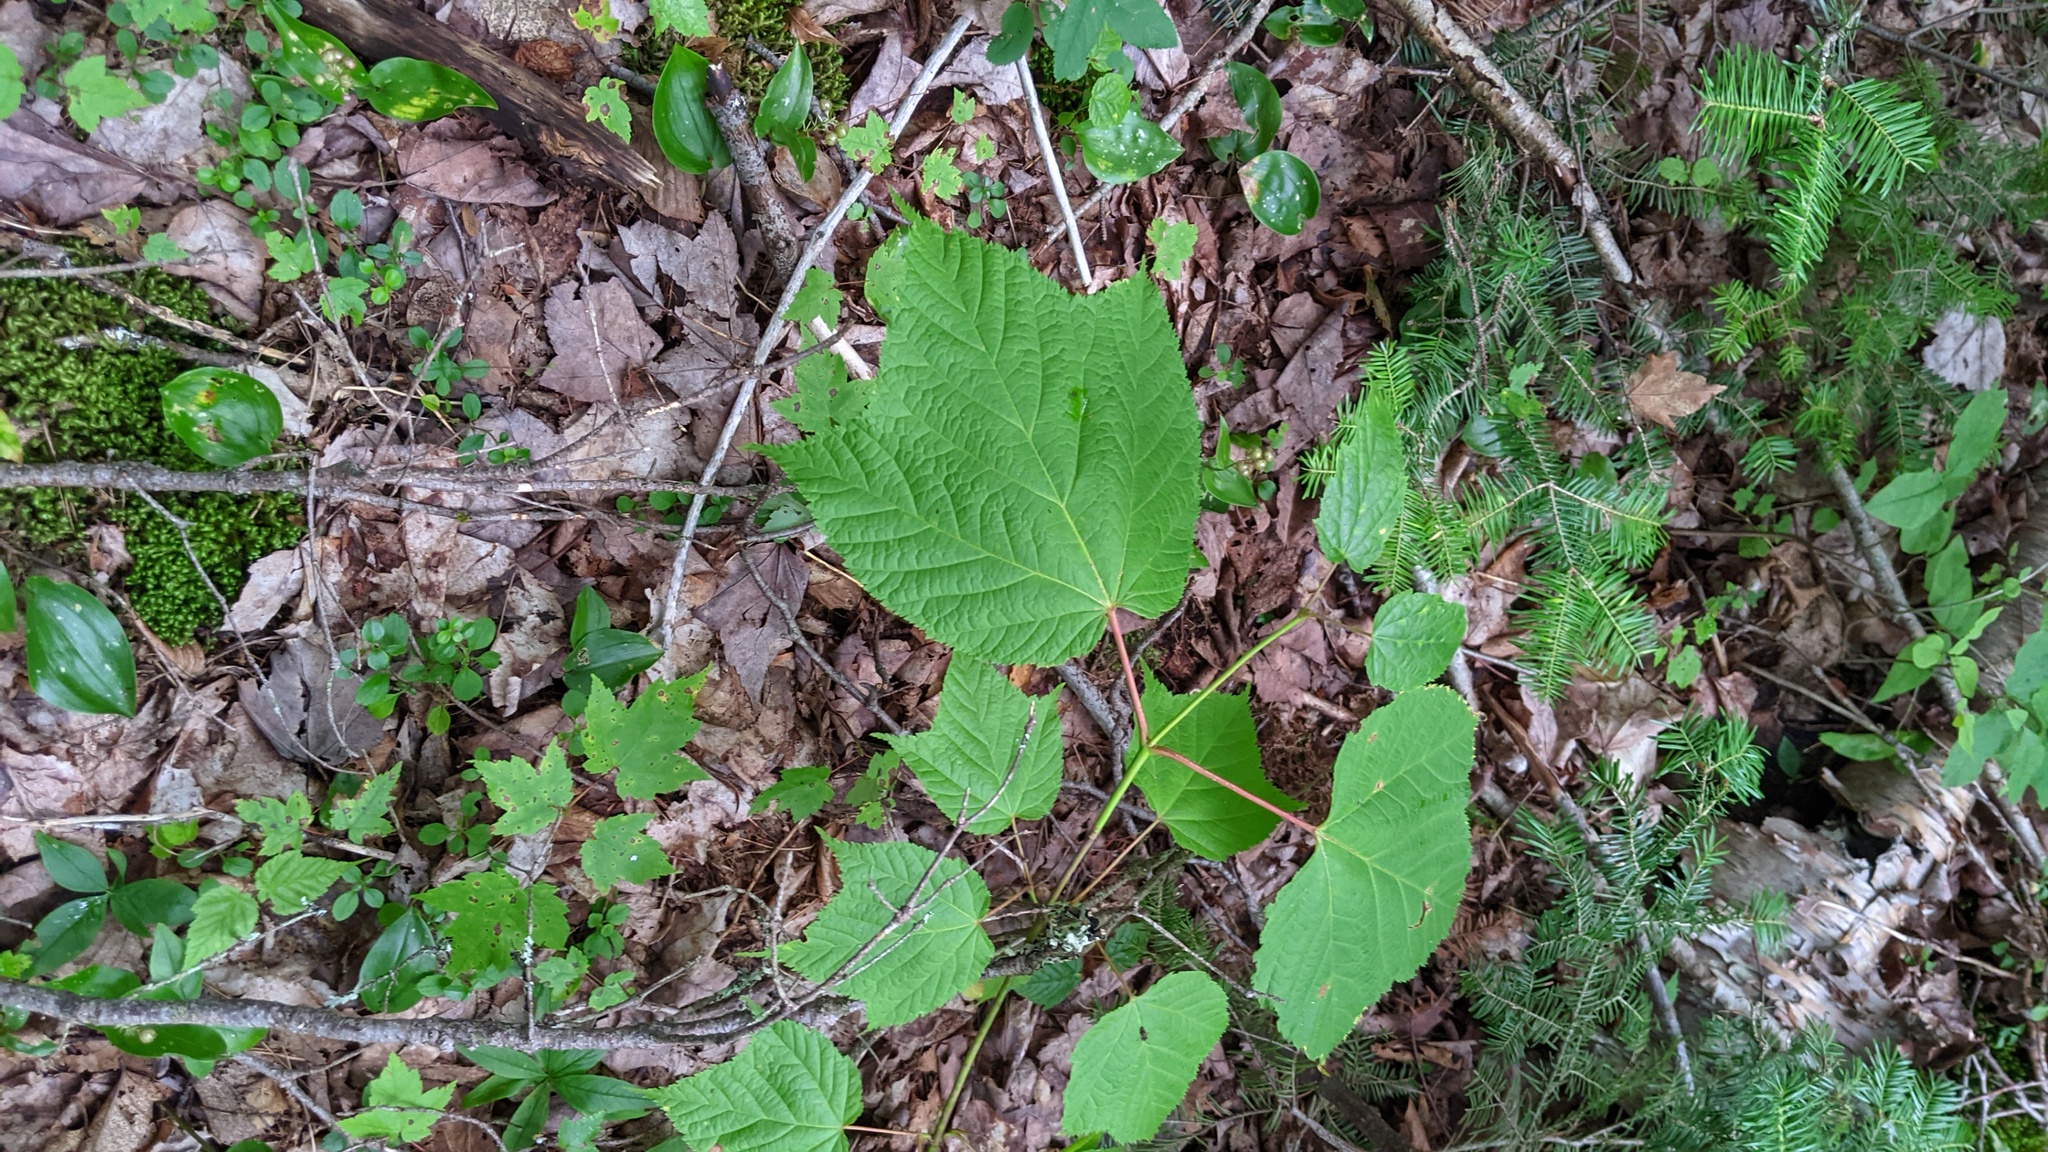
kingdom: Plantae
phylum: Tracheophyta
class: Magnoliopsida
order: Sapindales
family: Sapindaceae
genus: Acer
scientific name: Acer pensylvanicum
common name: Moosewood
